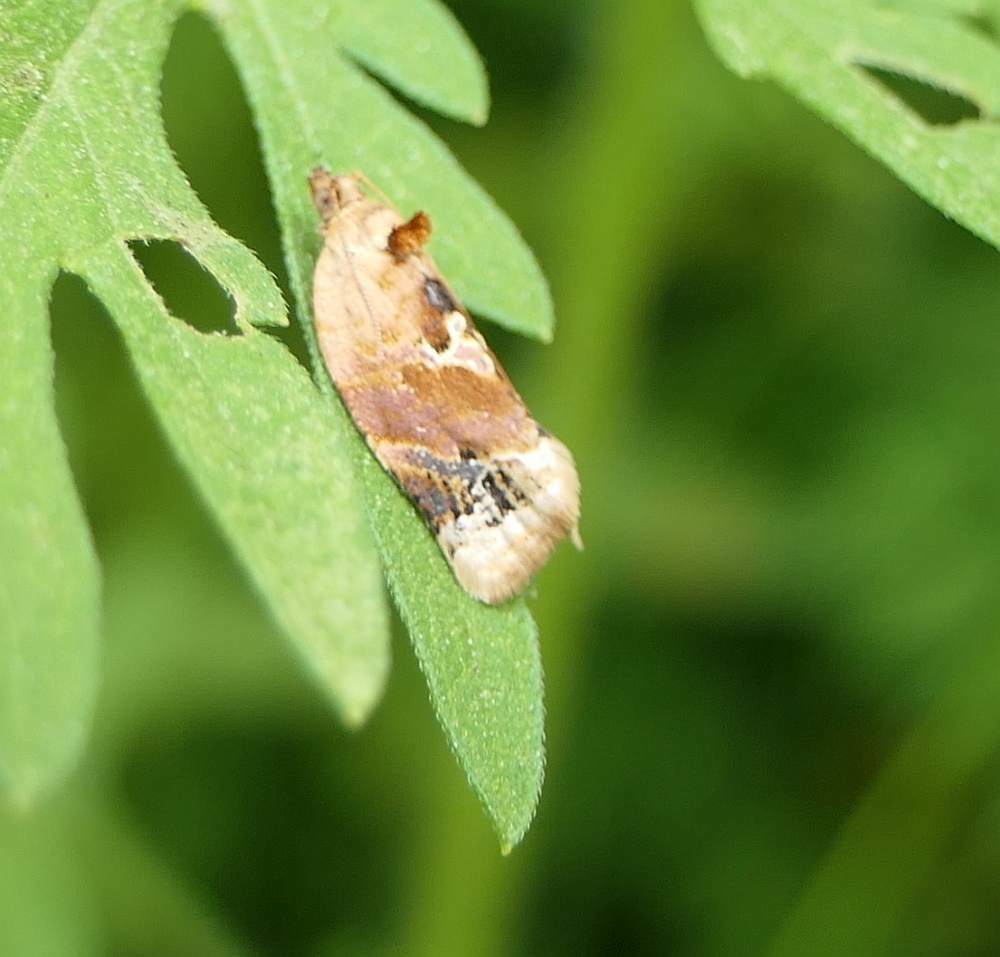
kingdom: Animalia
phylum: Arthropoda
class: Insecta
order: Lepidoptera
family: Tortricidae
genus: Argyrotaenia
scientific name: Argyrotaenia velutinana
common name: Red-banded leafroller moth
